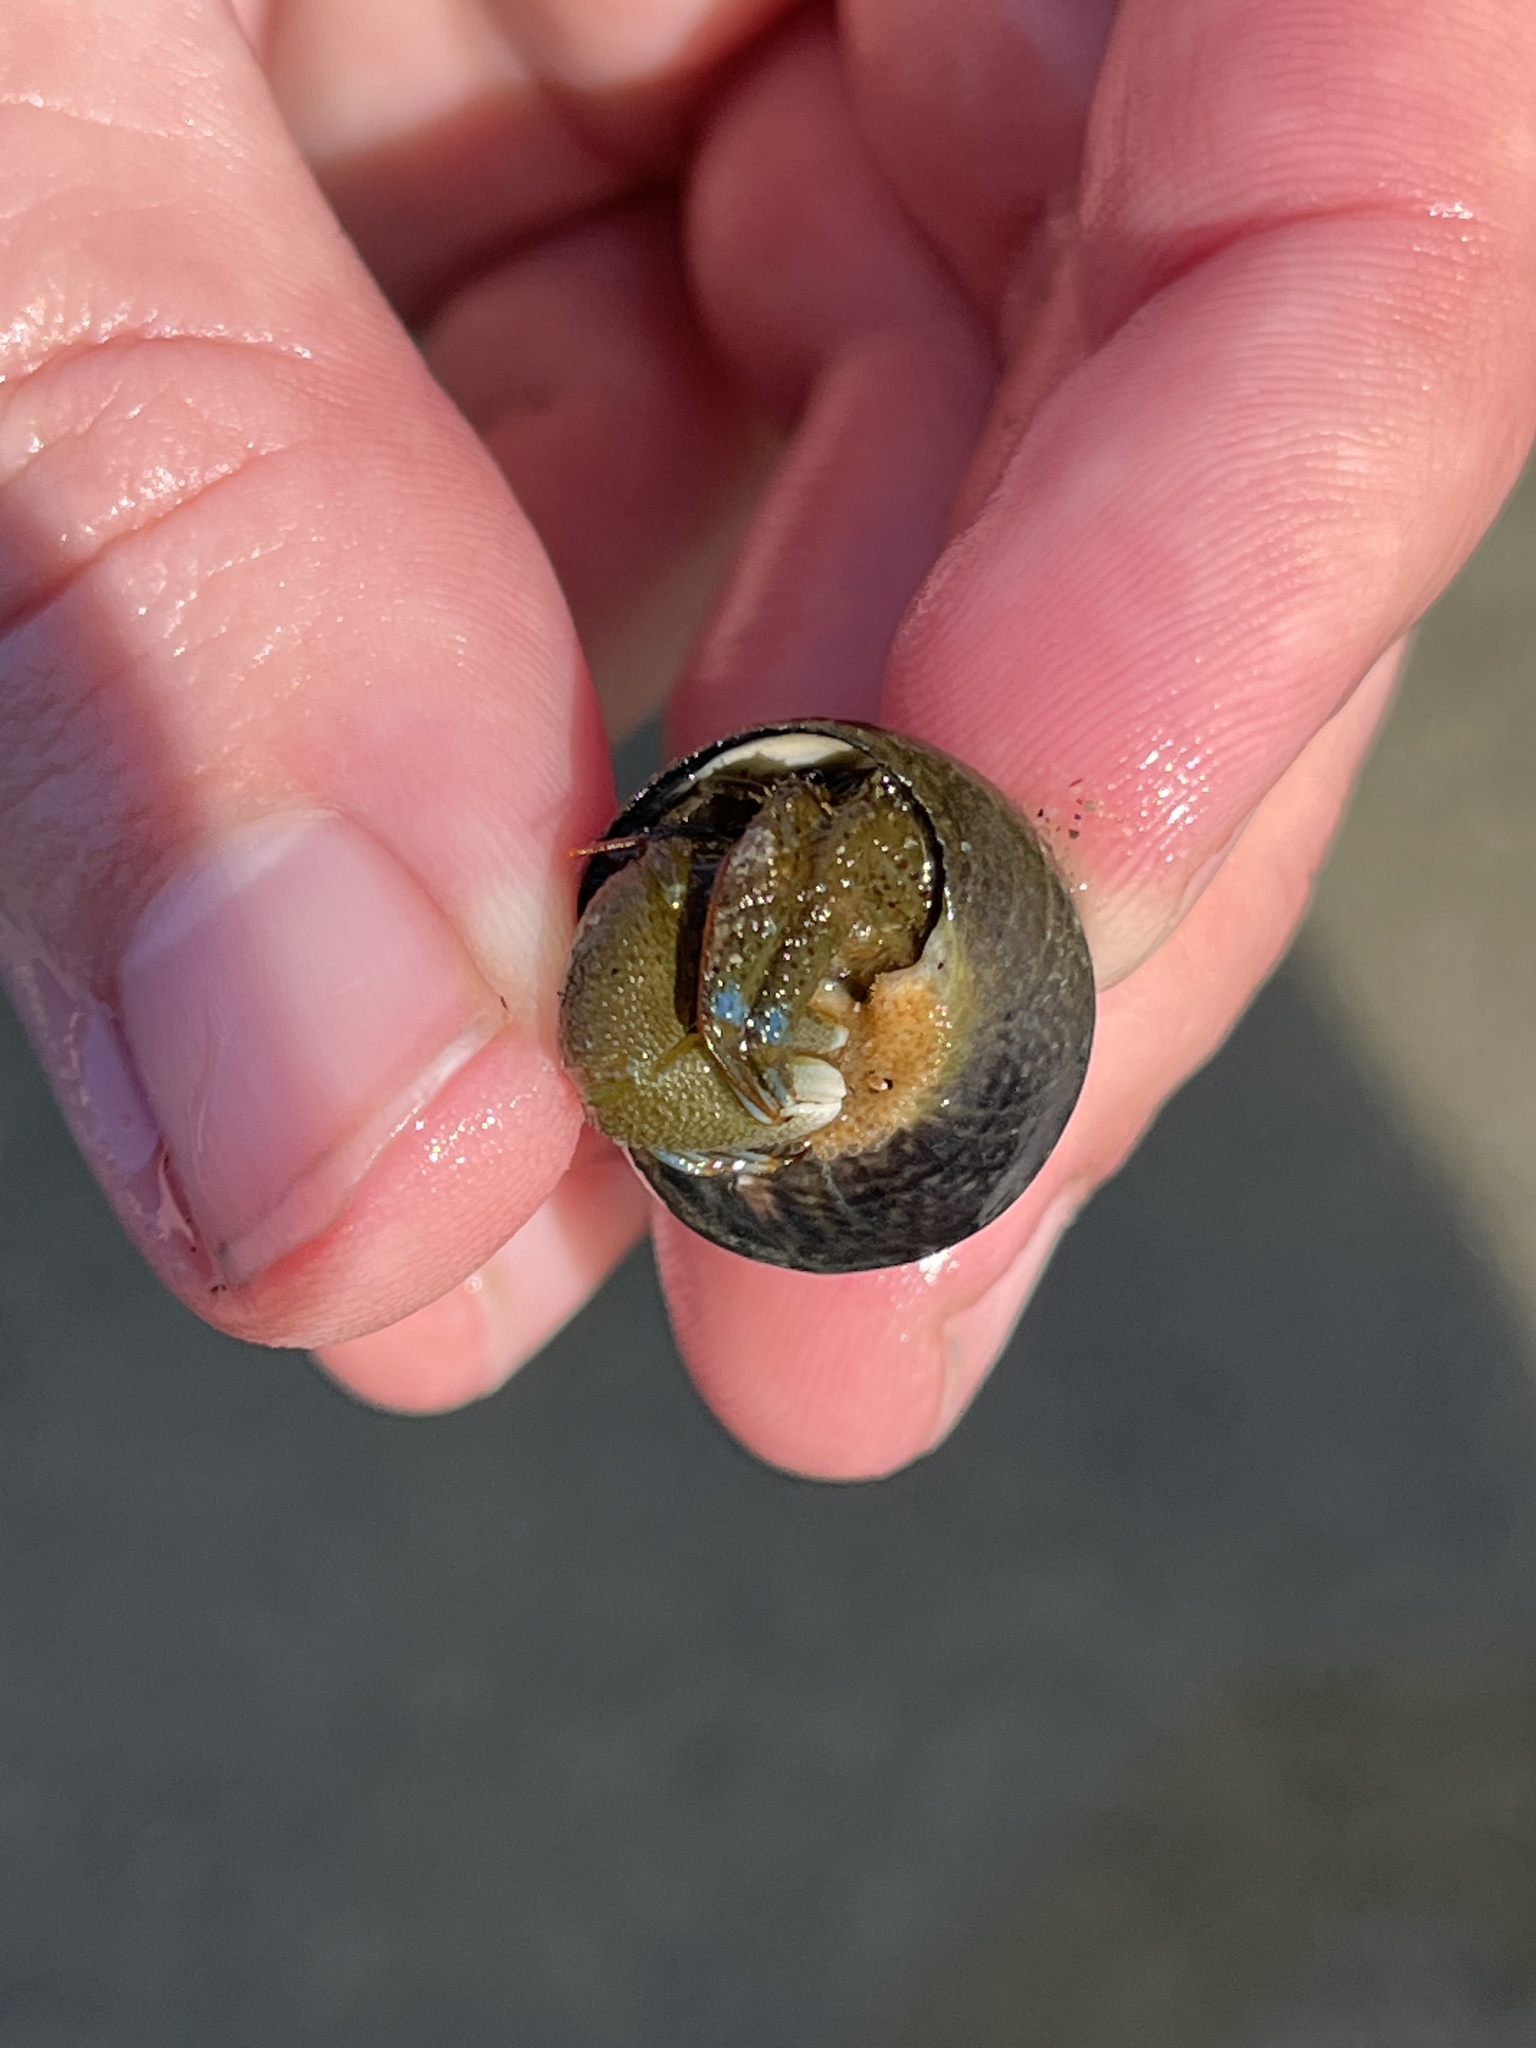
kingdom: Animalia
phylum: Arthropoda
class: Malacostraca
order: Decapoda
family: Paguridae
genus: Pagurus
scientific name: Pagurus samuelis
